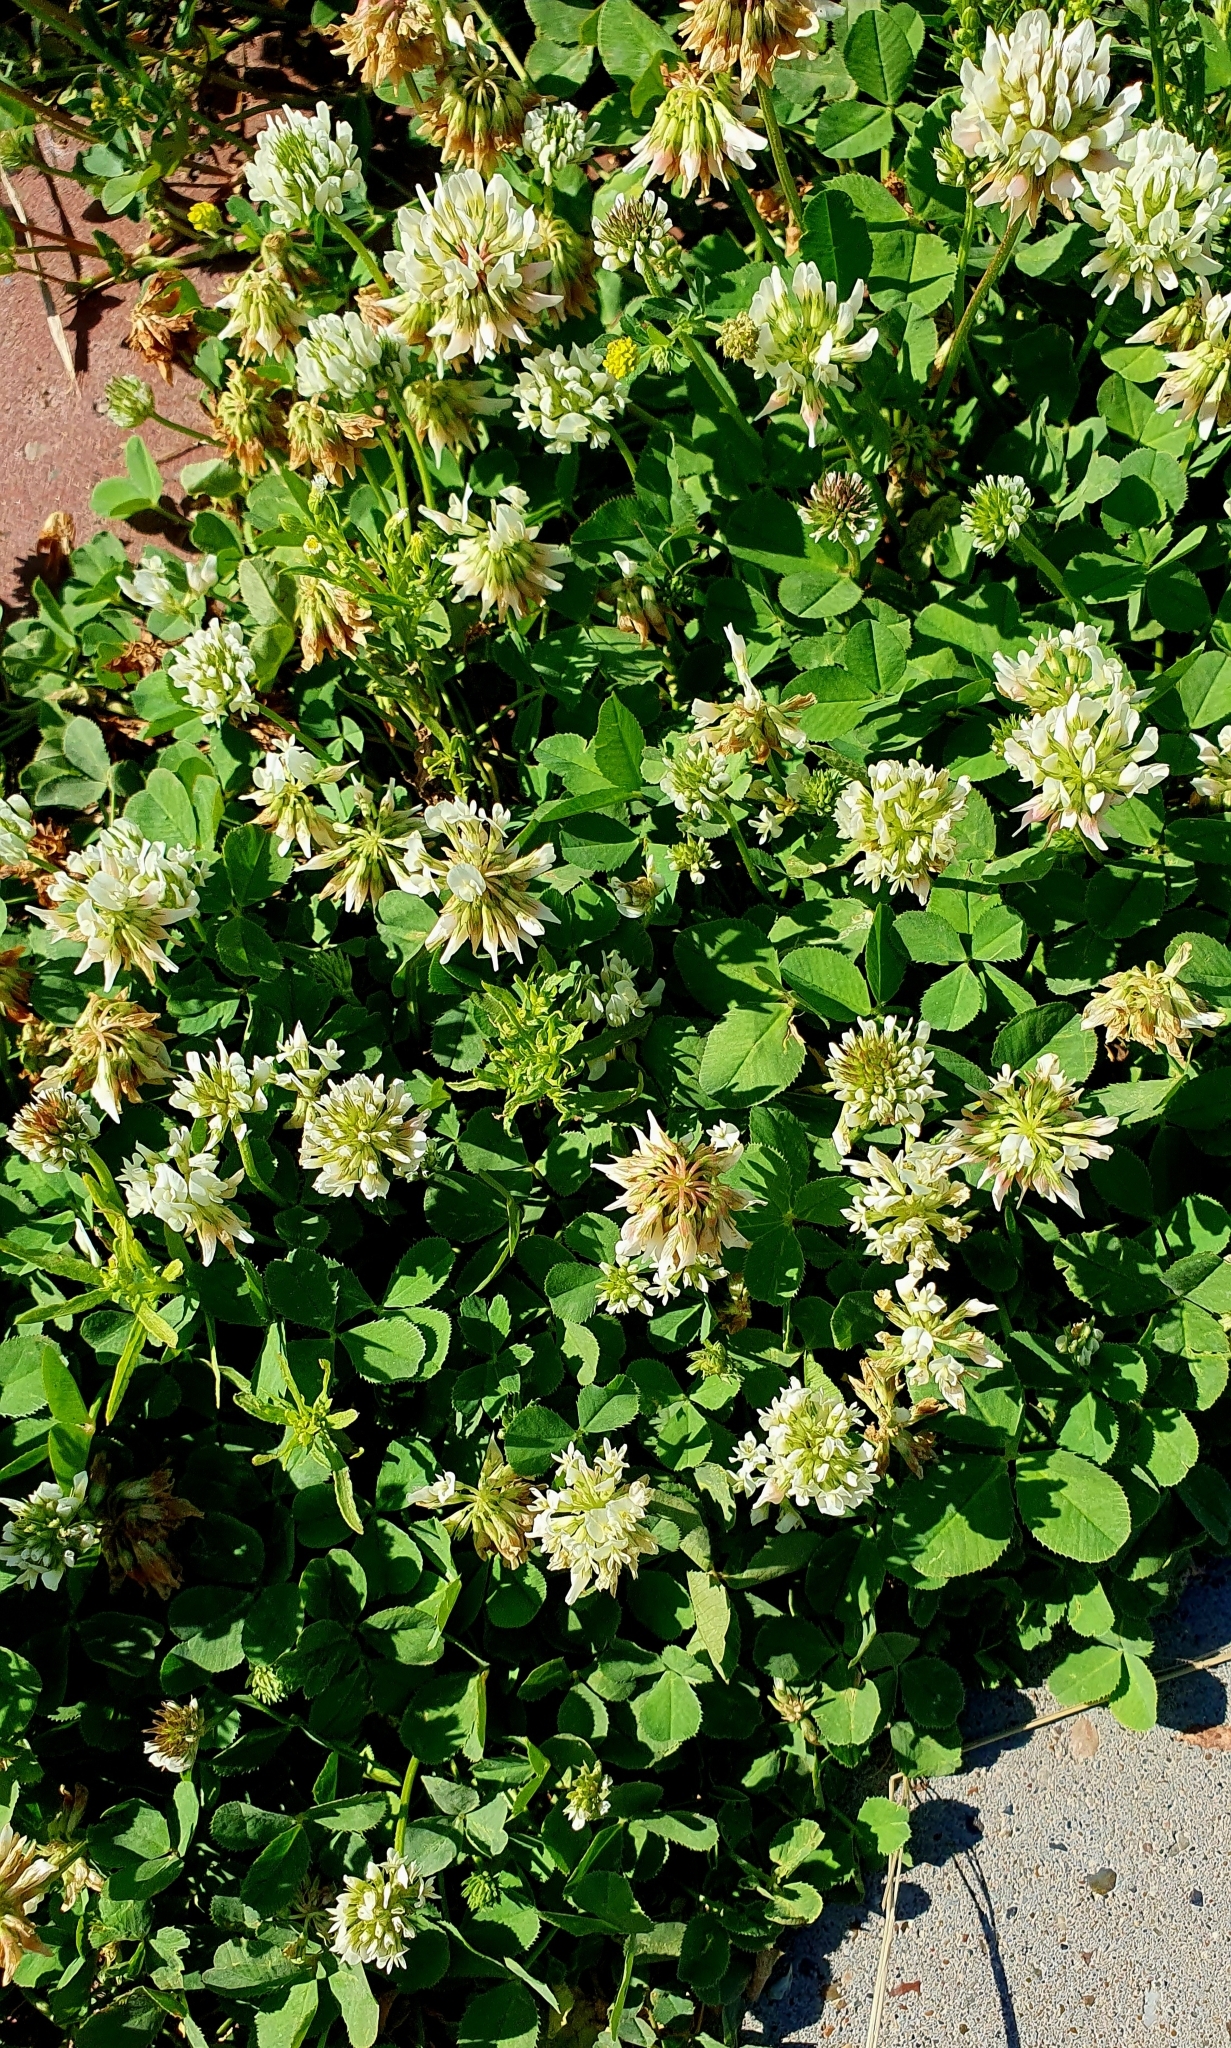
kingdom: Plantae
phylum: Tracheophyta
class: Magnoliopsida
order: Fabales
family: Fabaceae
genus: Trifolium
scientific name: Trifolium repens
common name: White clover
